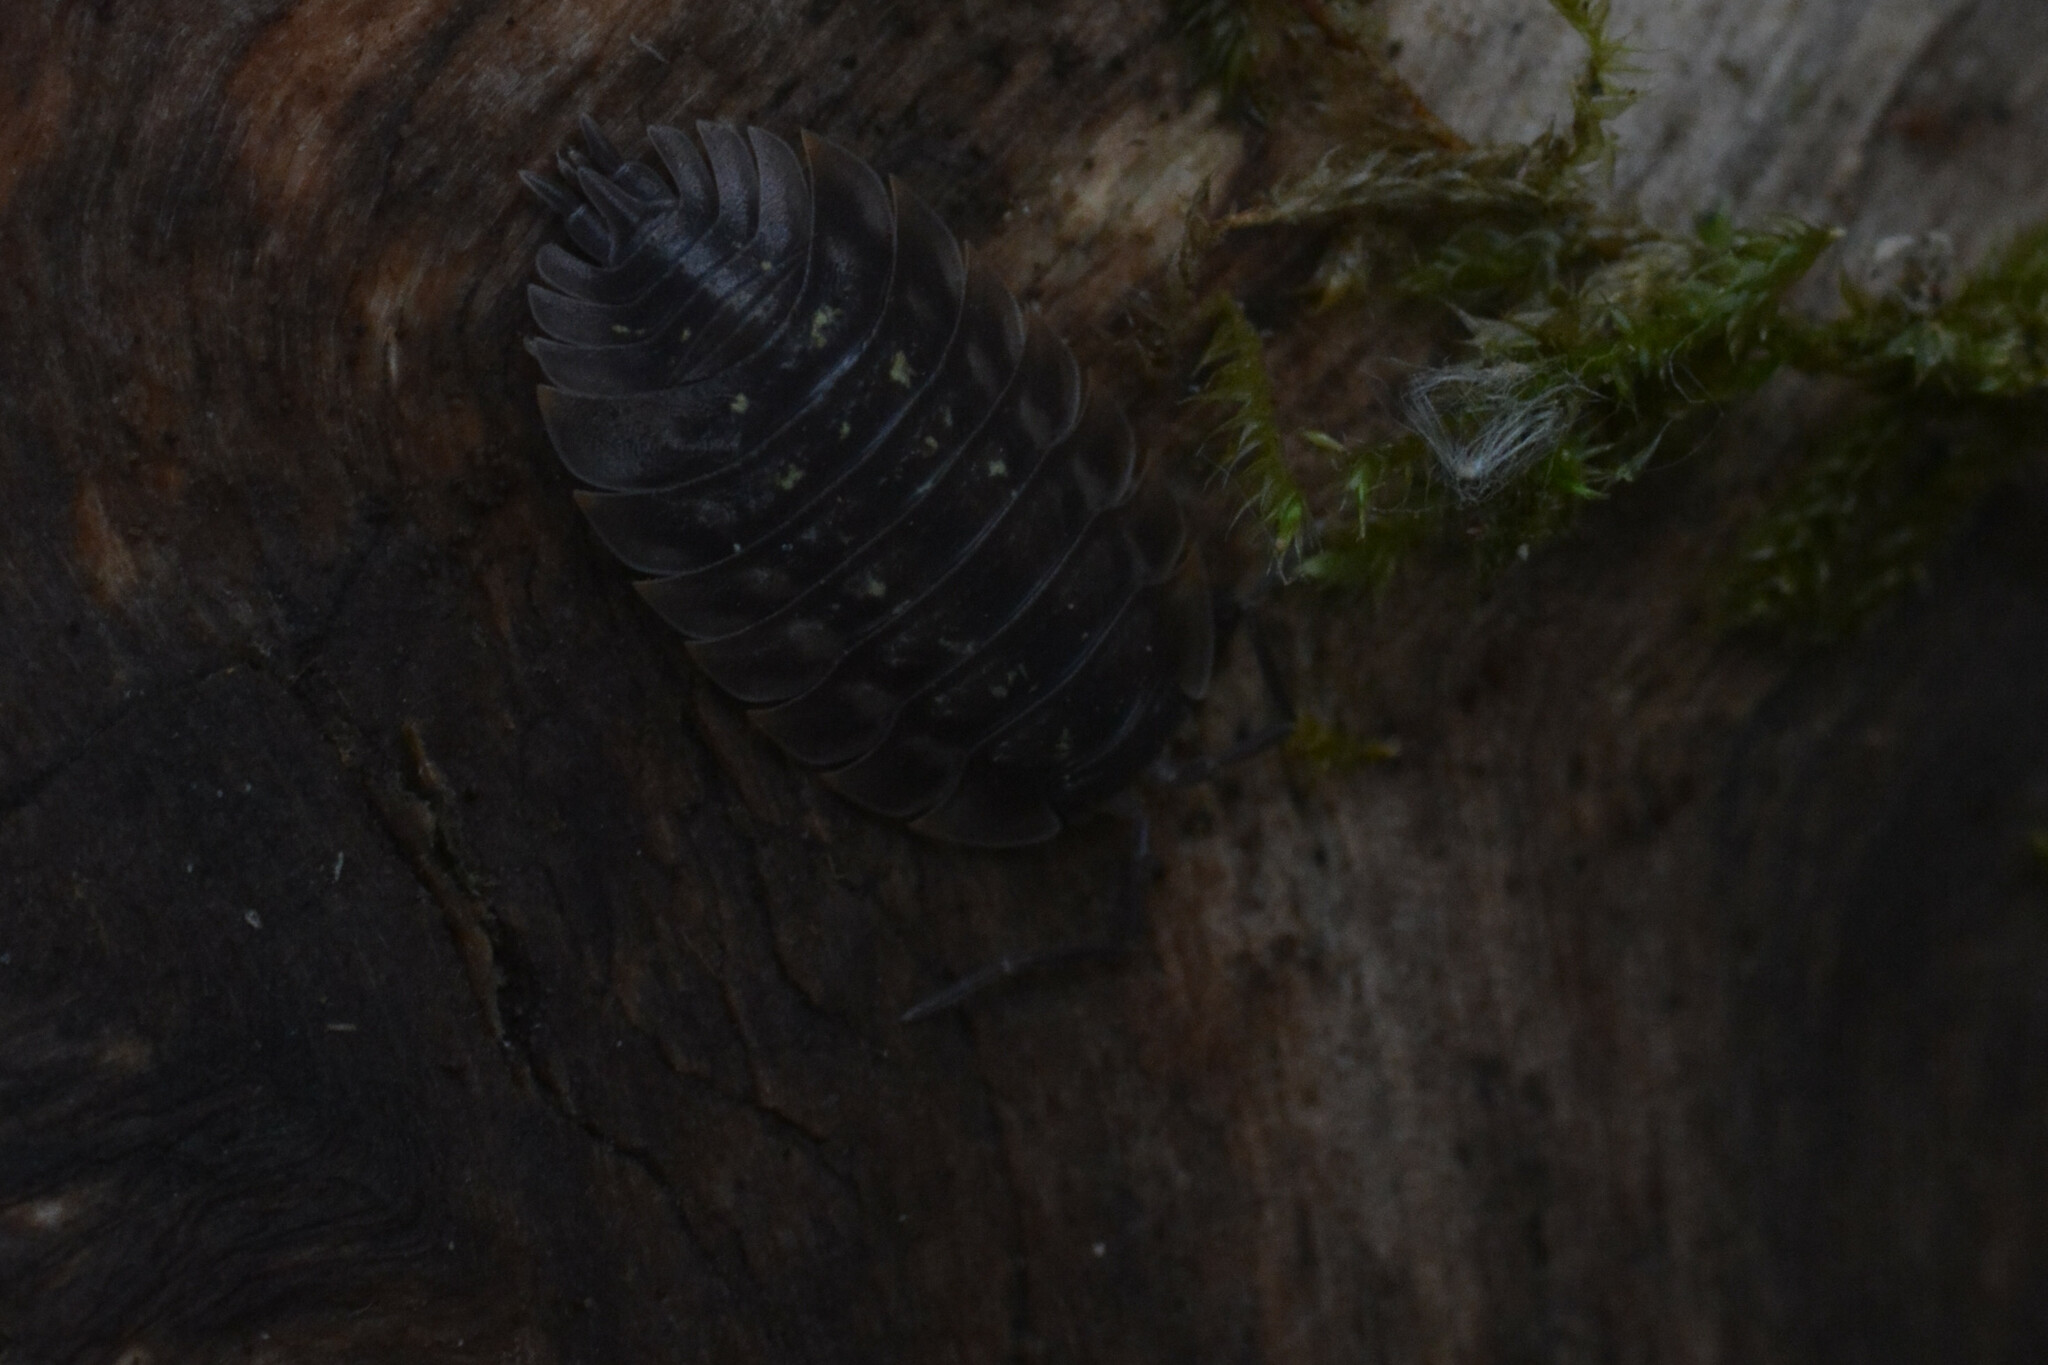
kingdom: Animalia
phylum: Arthropoda
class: Malacostraca
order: Isopoda
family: Oniscidae
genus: Oniscus
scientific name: Oniscus asellus
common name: Common shiny woodlouse
